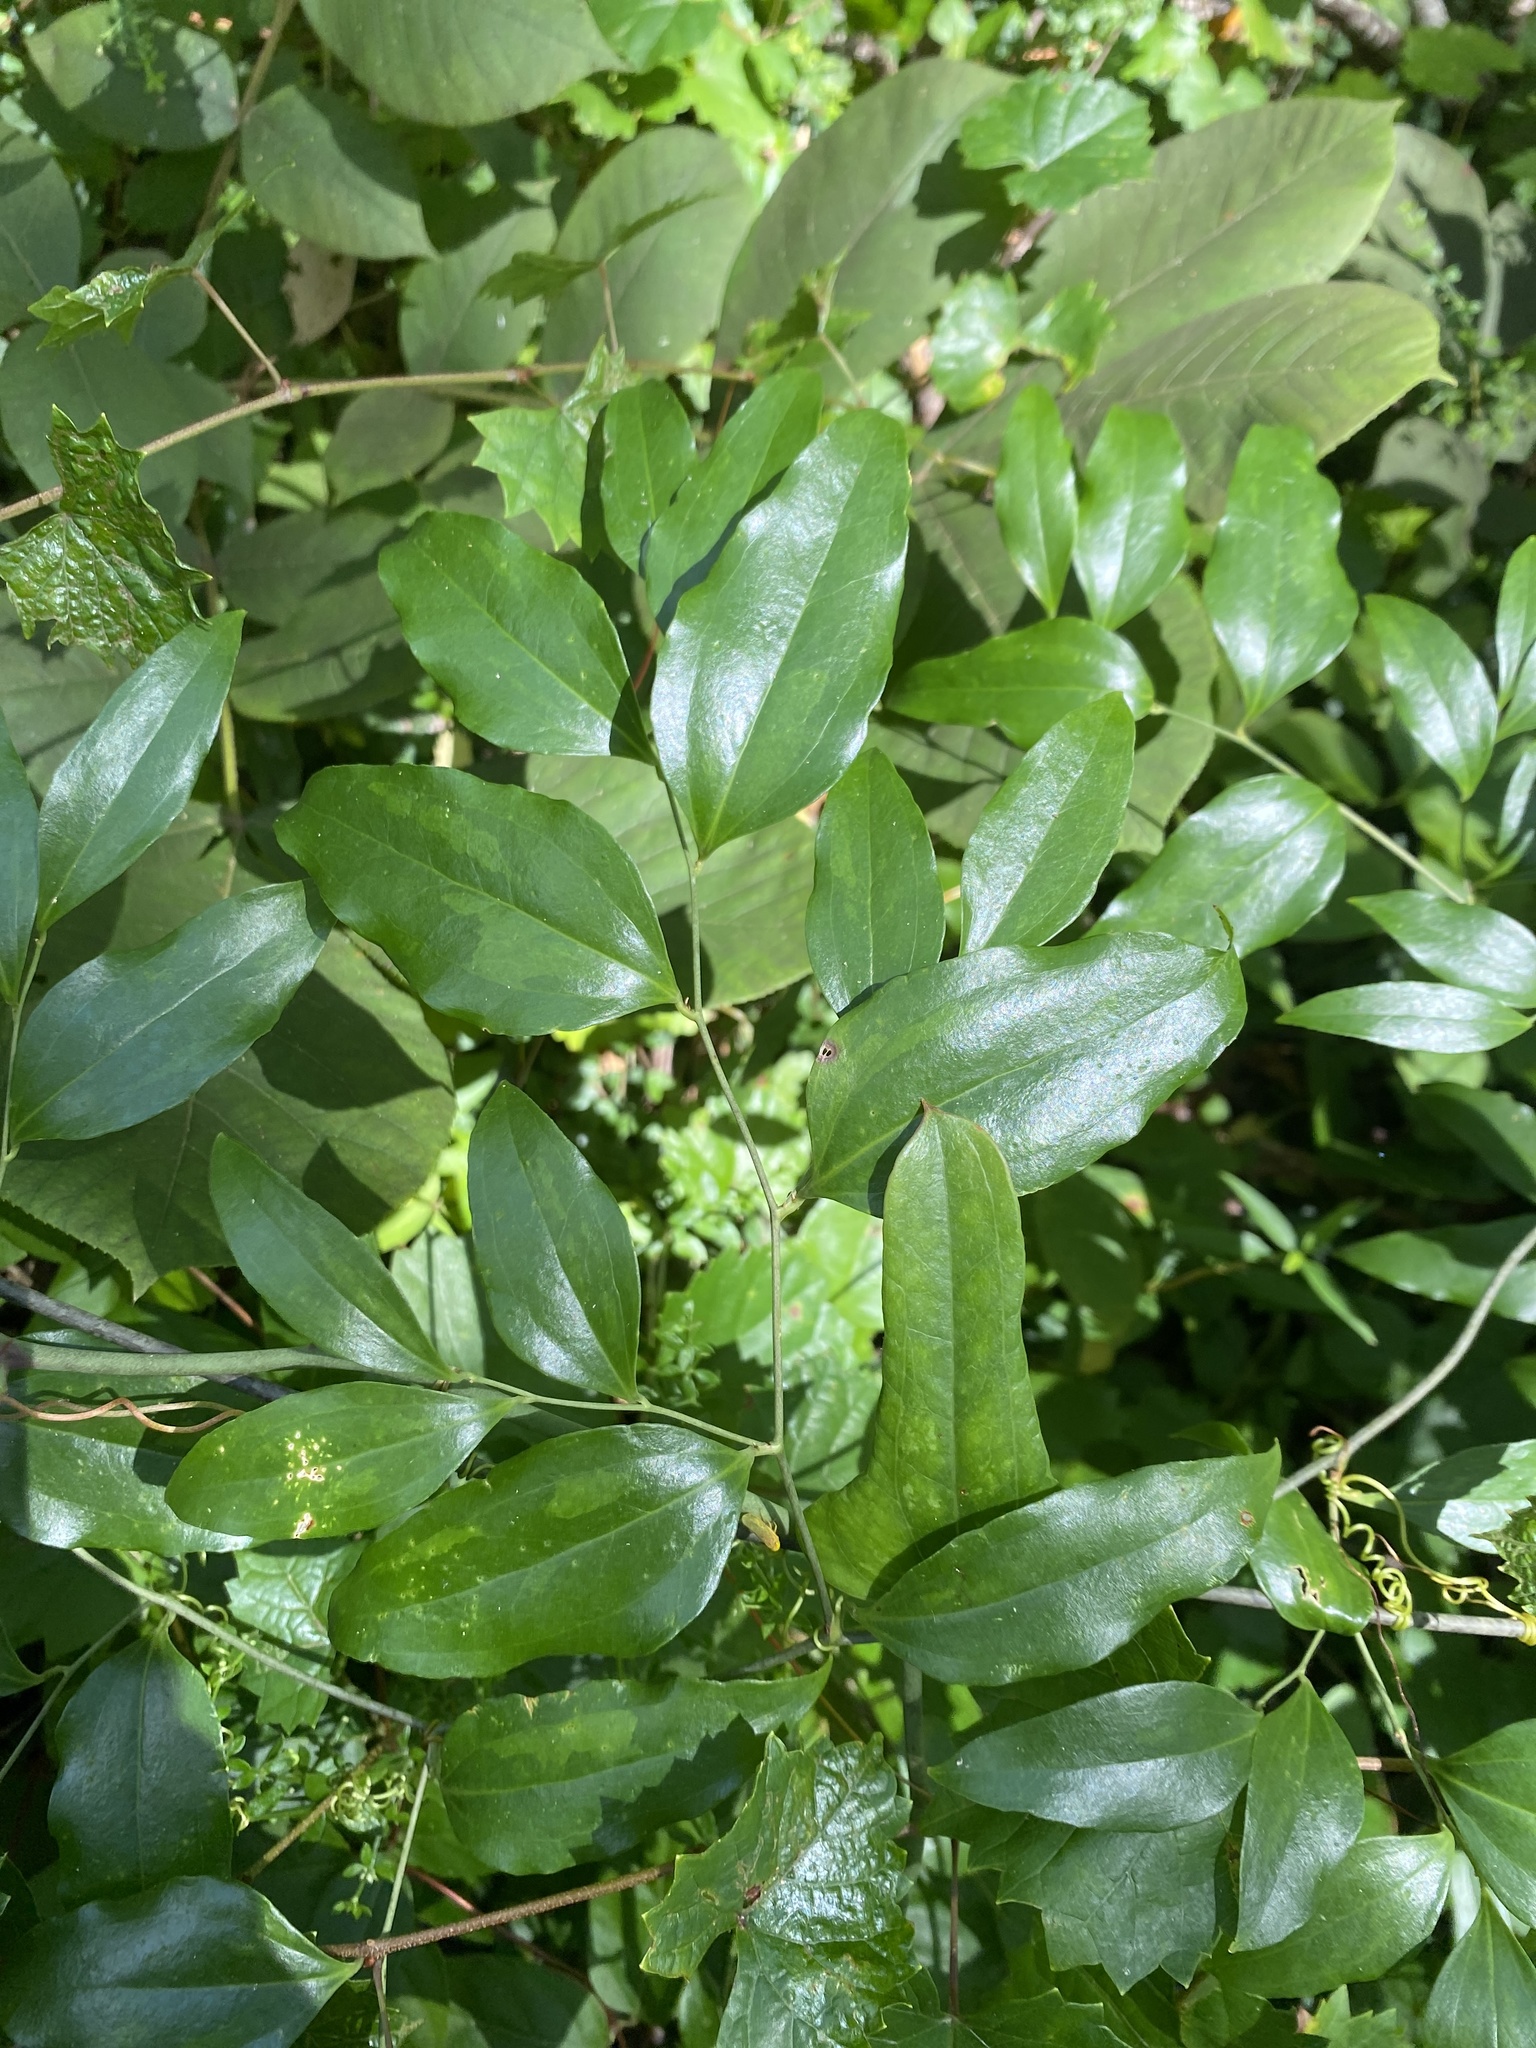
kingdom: Plantae
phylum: Tracheophyta
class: Liliopsida
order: Liliales
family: Smilacaceae
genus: Smilax
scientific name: Smilax maritima
